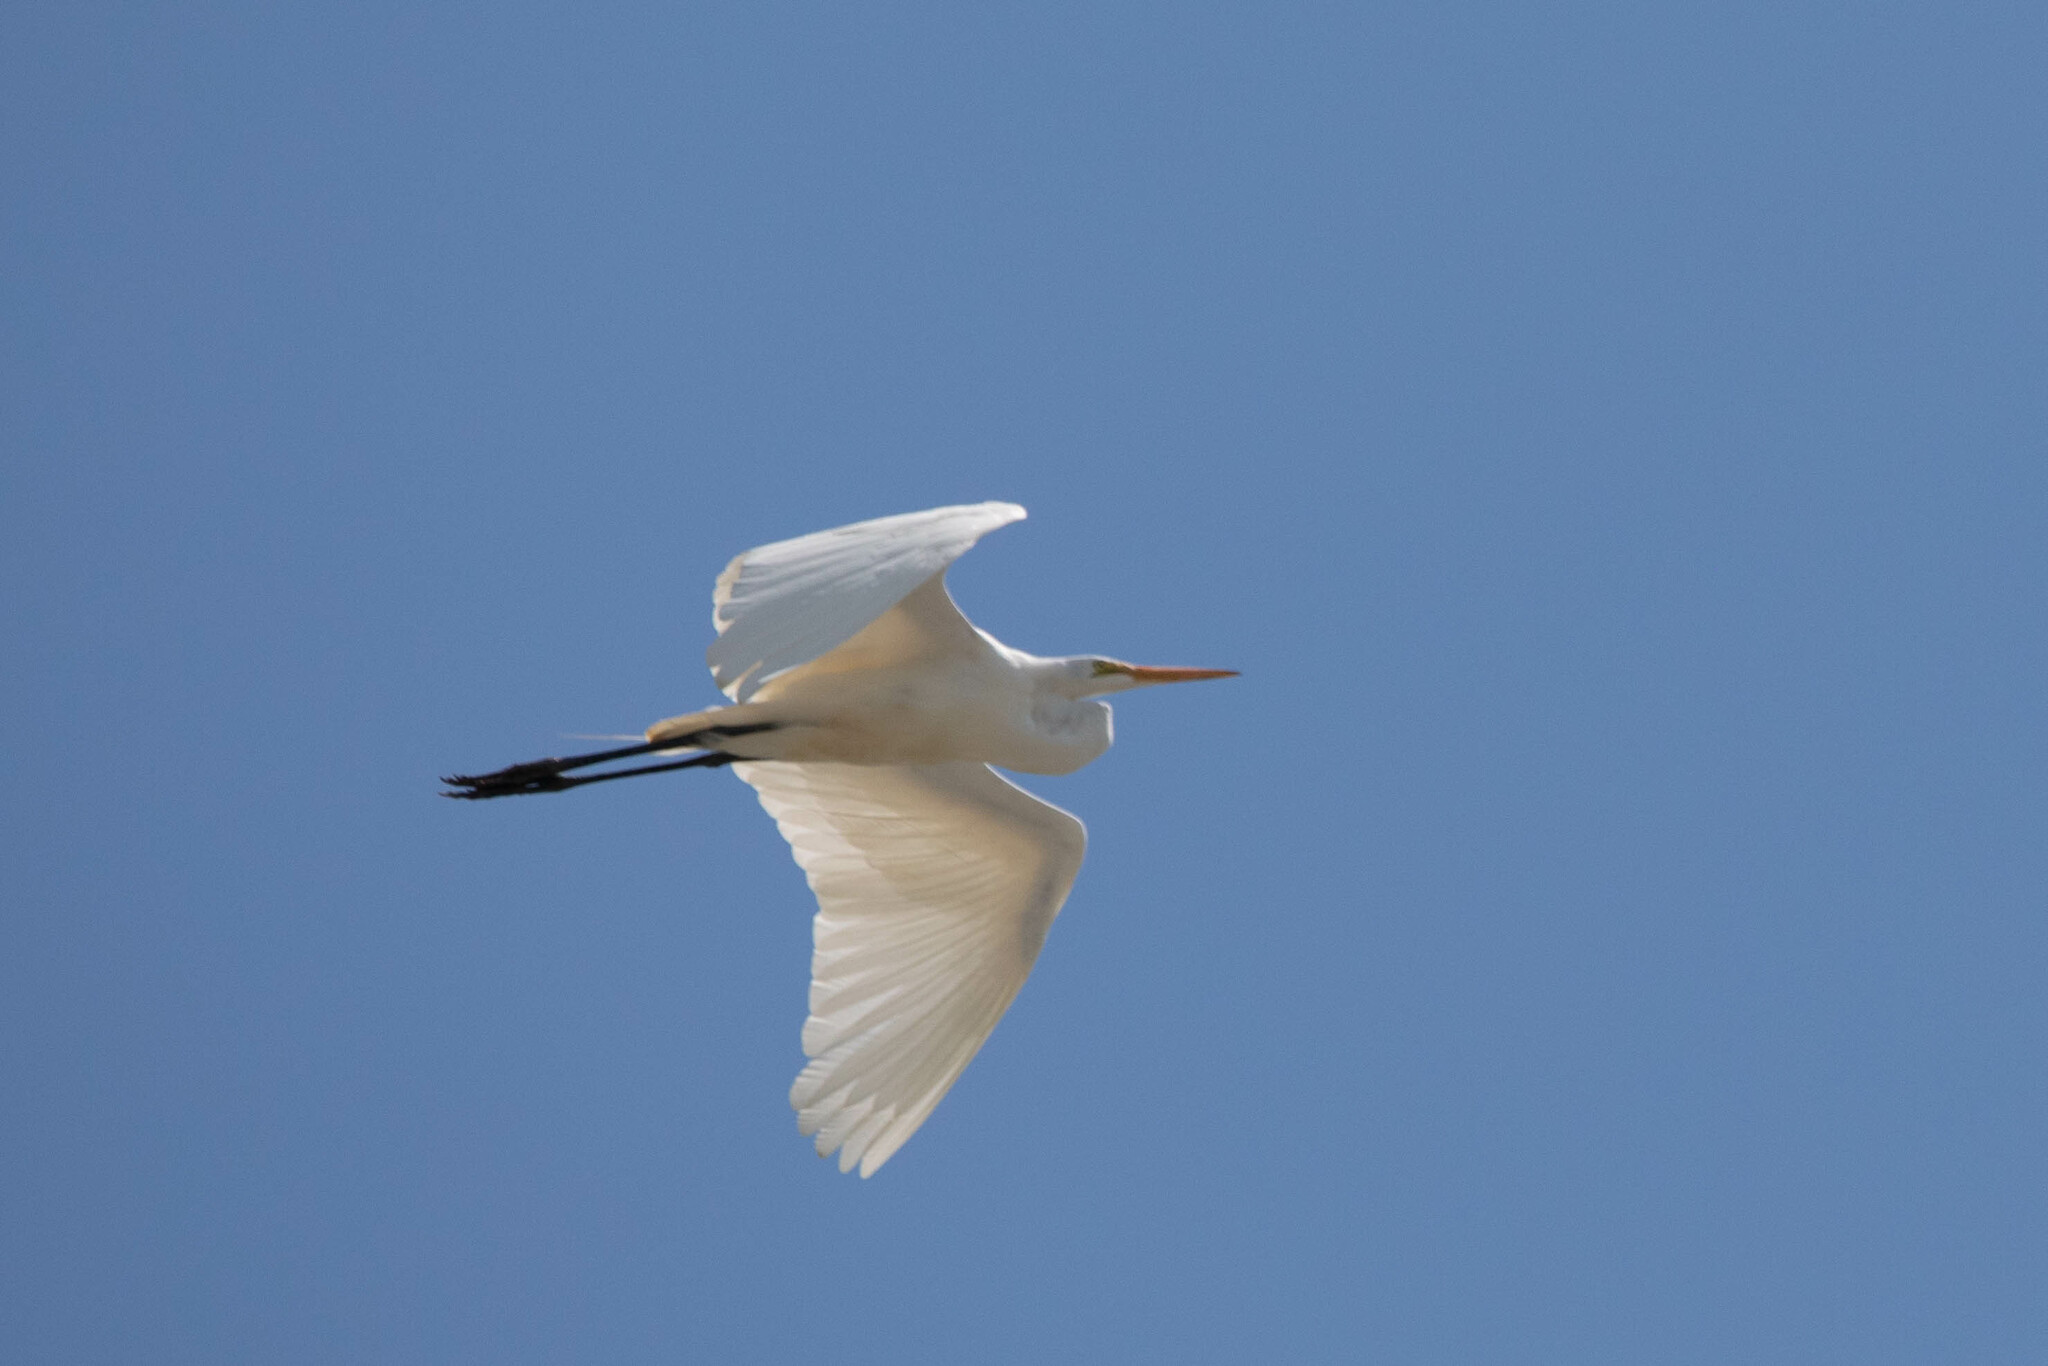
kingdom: Animalia
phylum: Chordata
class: Aves
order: Pelecaniformes
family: Ardeidae
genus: Ardea
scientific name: Ardea alba
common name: Great egret
